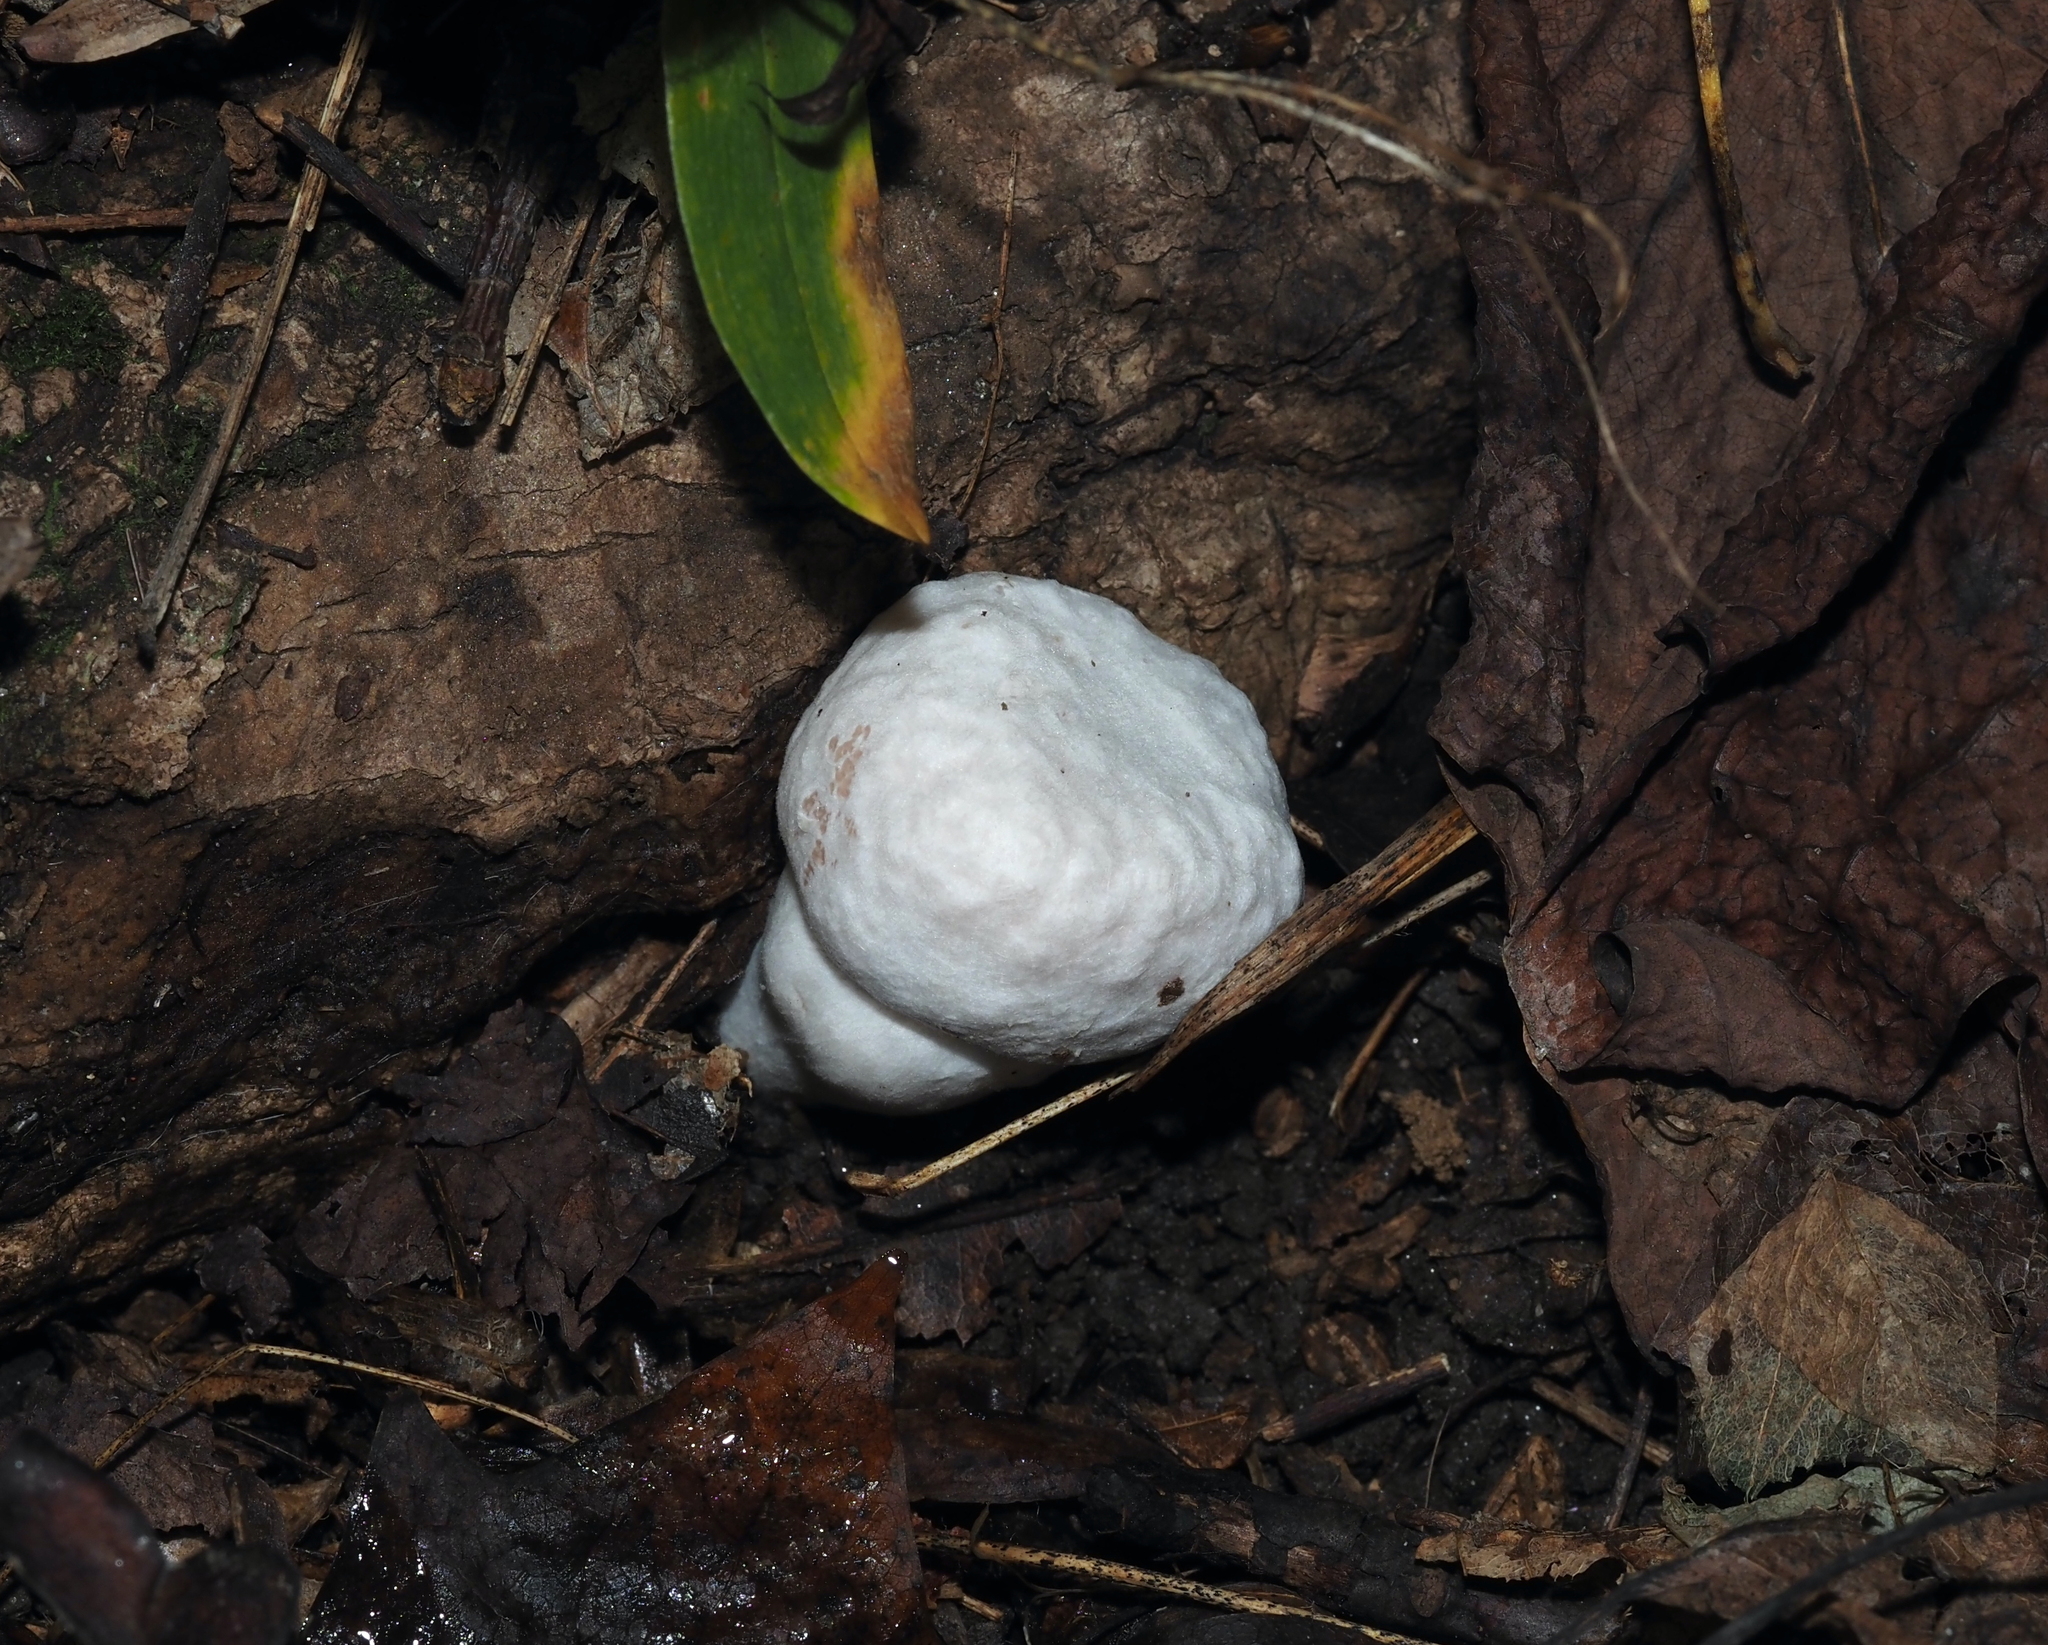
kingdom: Fungi
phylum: Basidiomycota
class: Agaricomycetes
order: Agaricales
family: Entolomataceae
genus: Entoloma
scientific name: Entoloma abortivum
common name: Aborted entoloma
